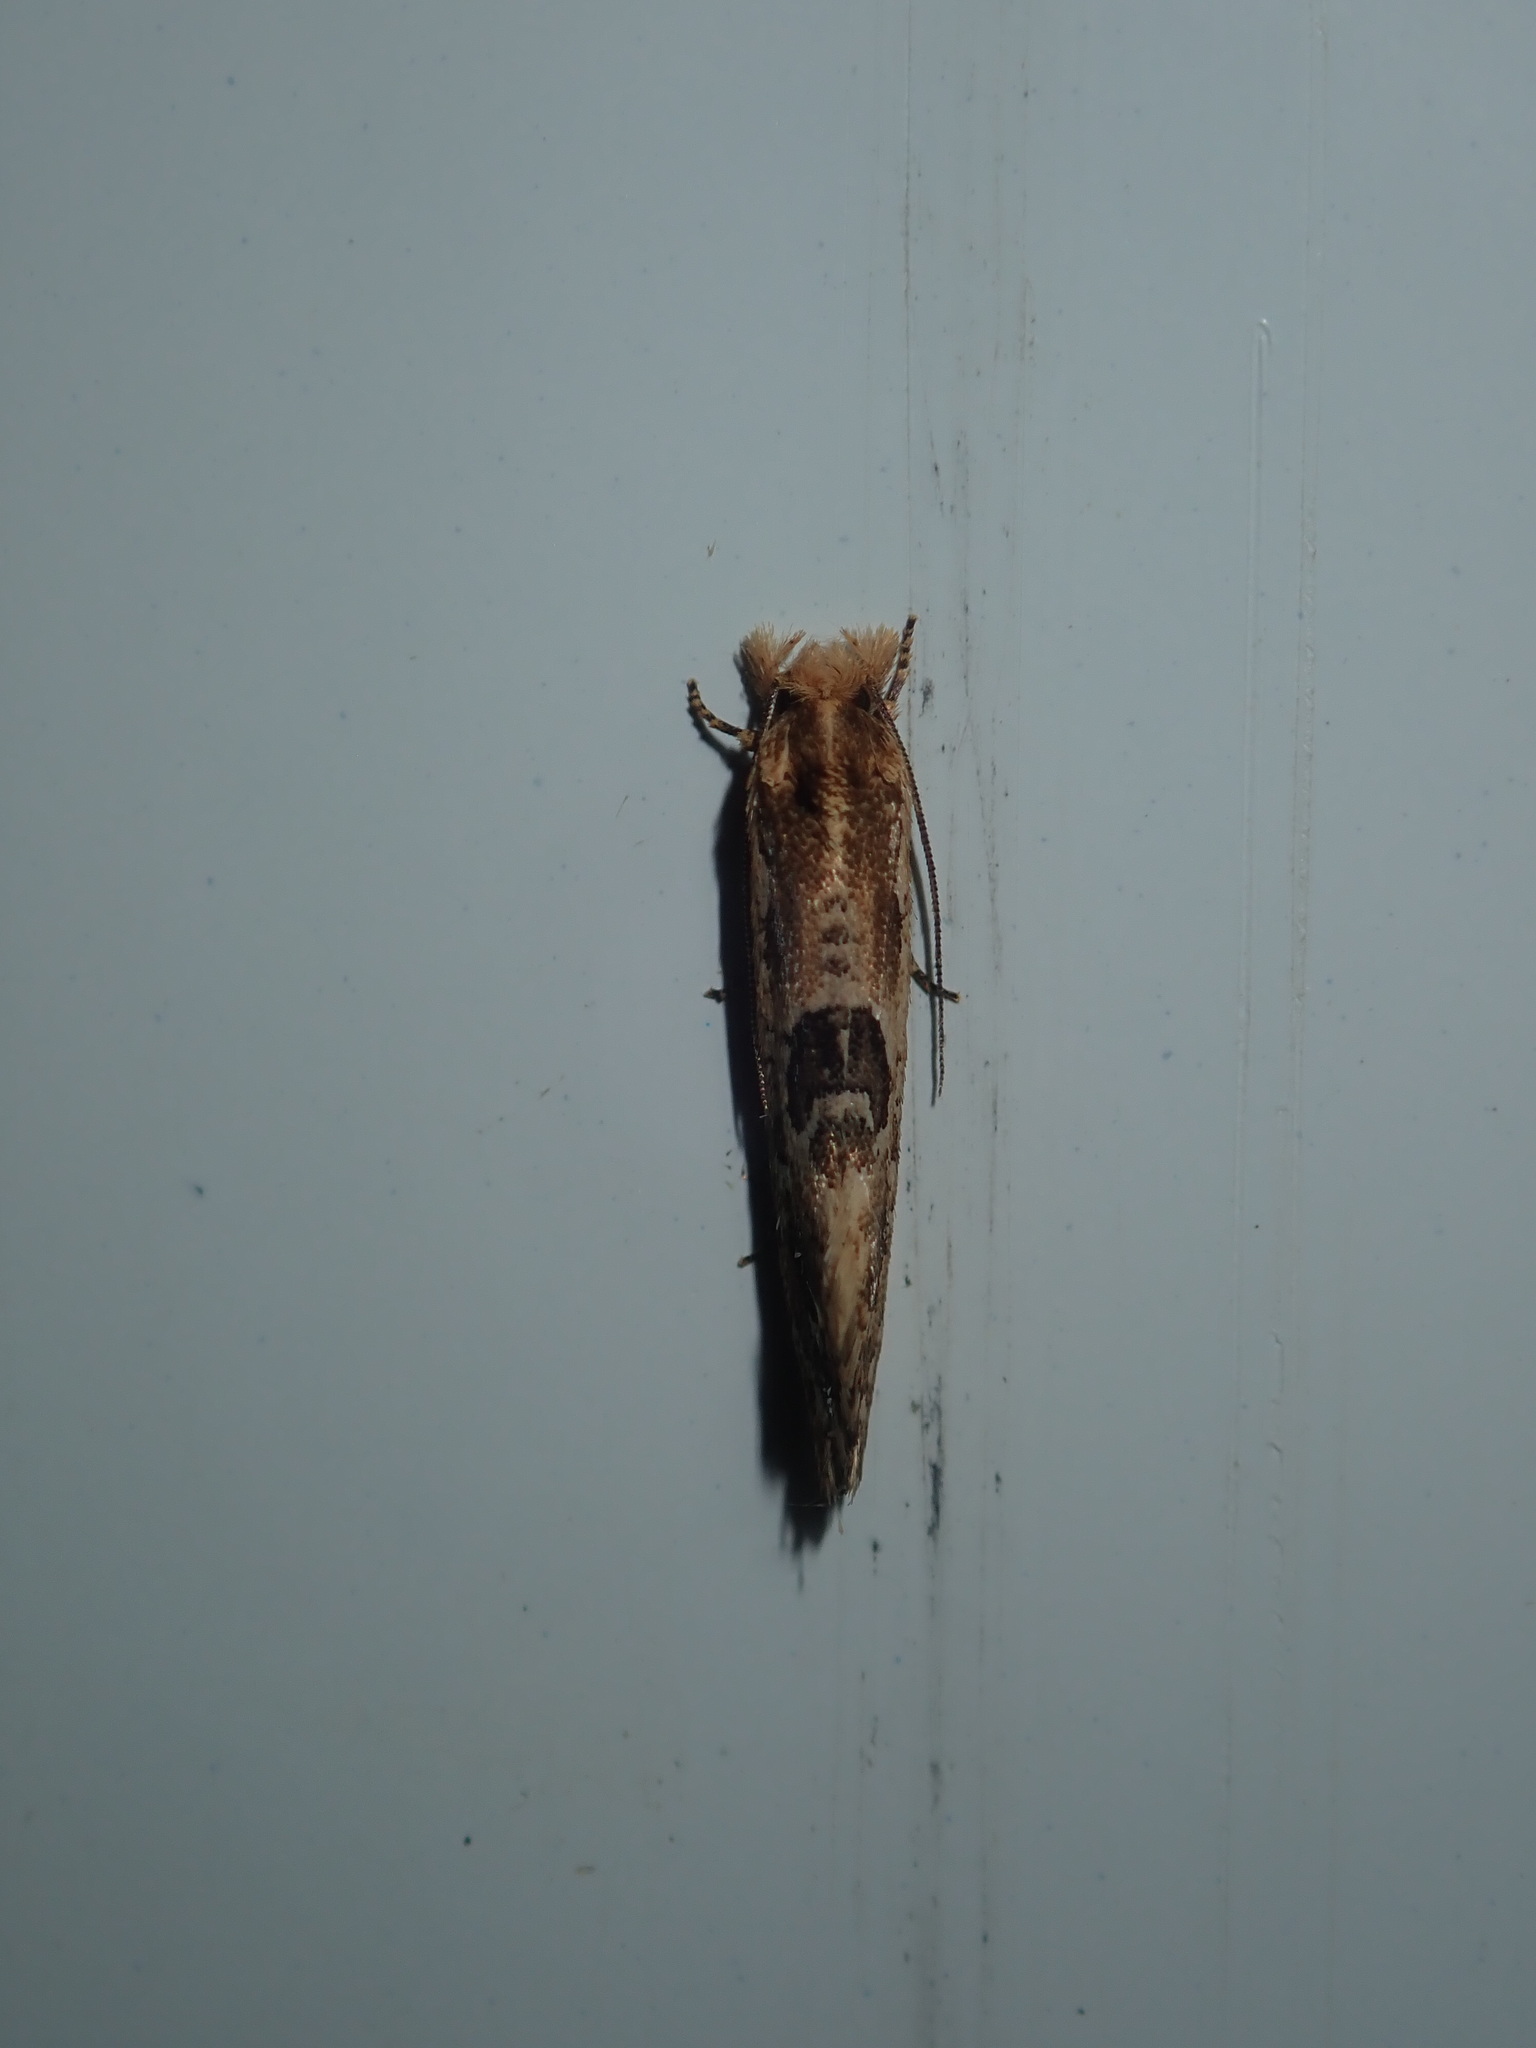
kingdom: Animalia
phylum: Arthropoda
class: Insecta
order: Lepidoptera
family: Tineidae
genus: Moerarchis
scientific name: Moerarchis inconcisella
